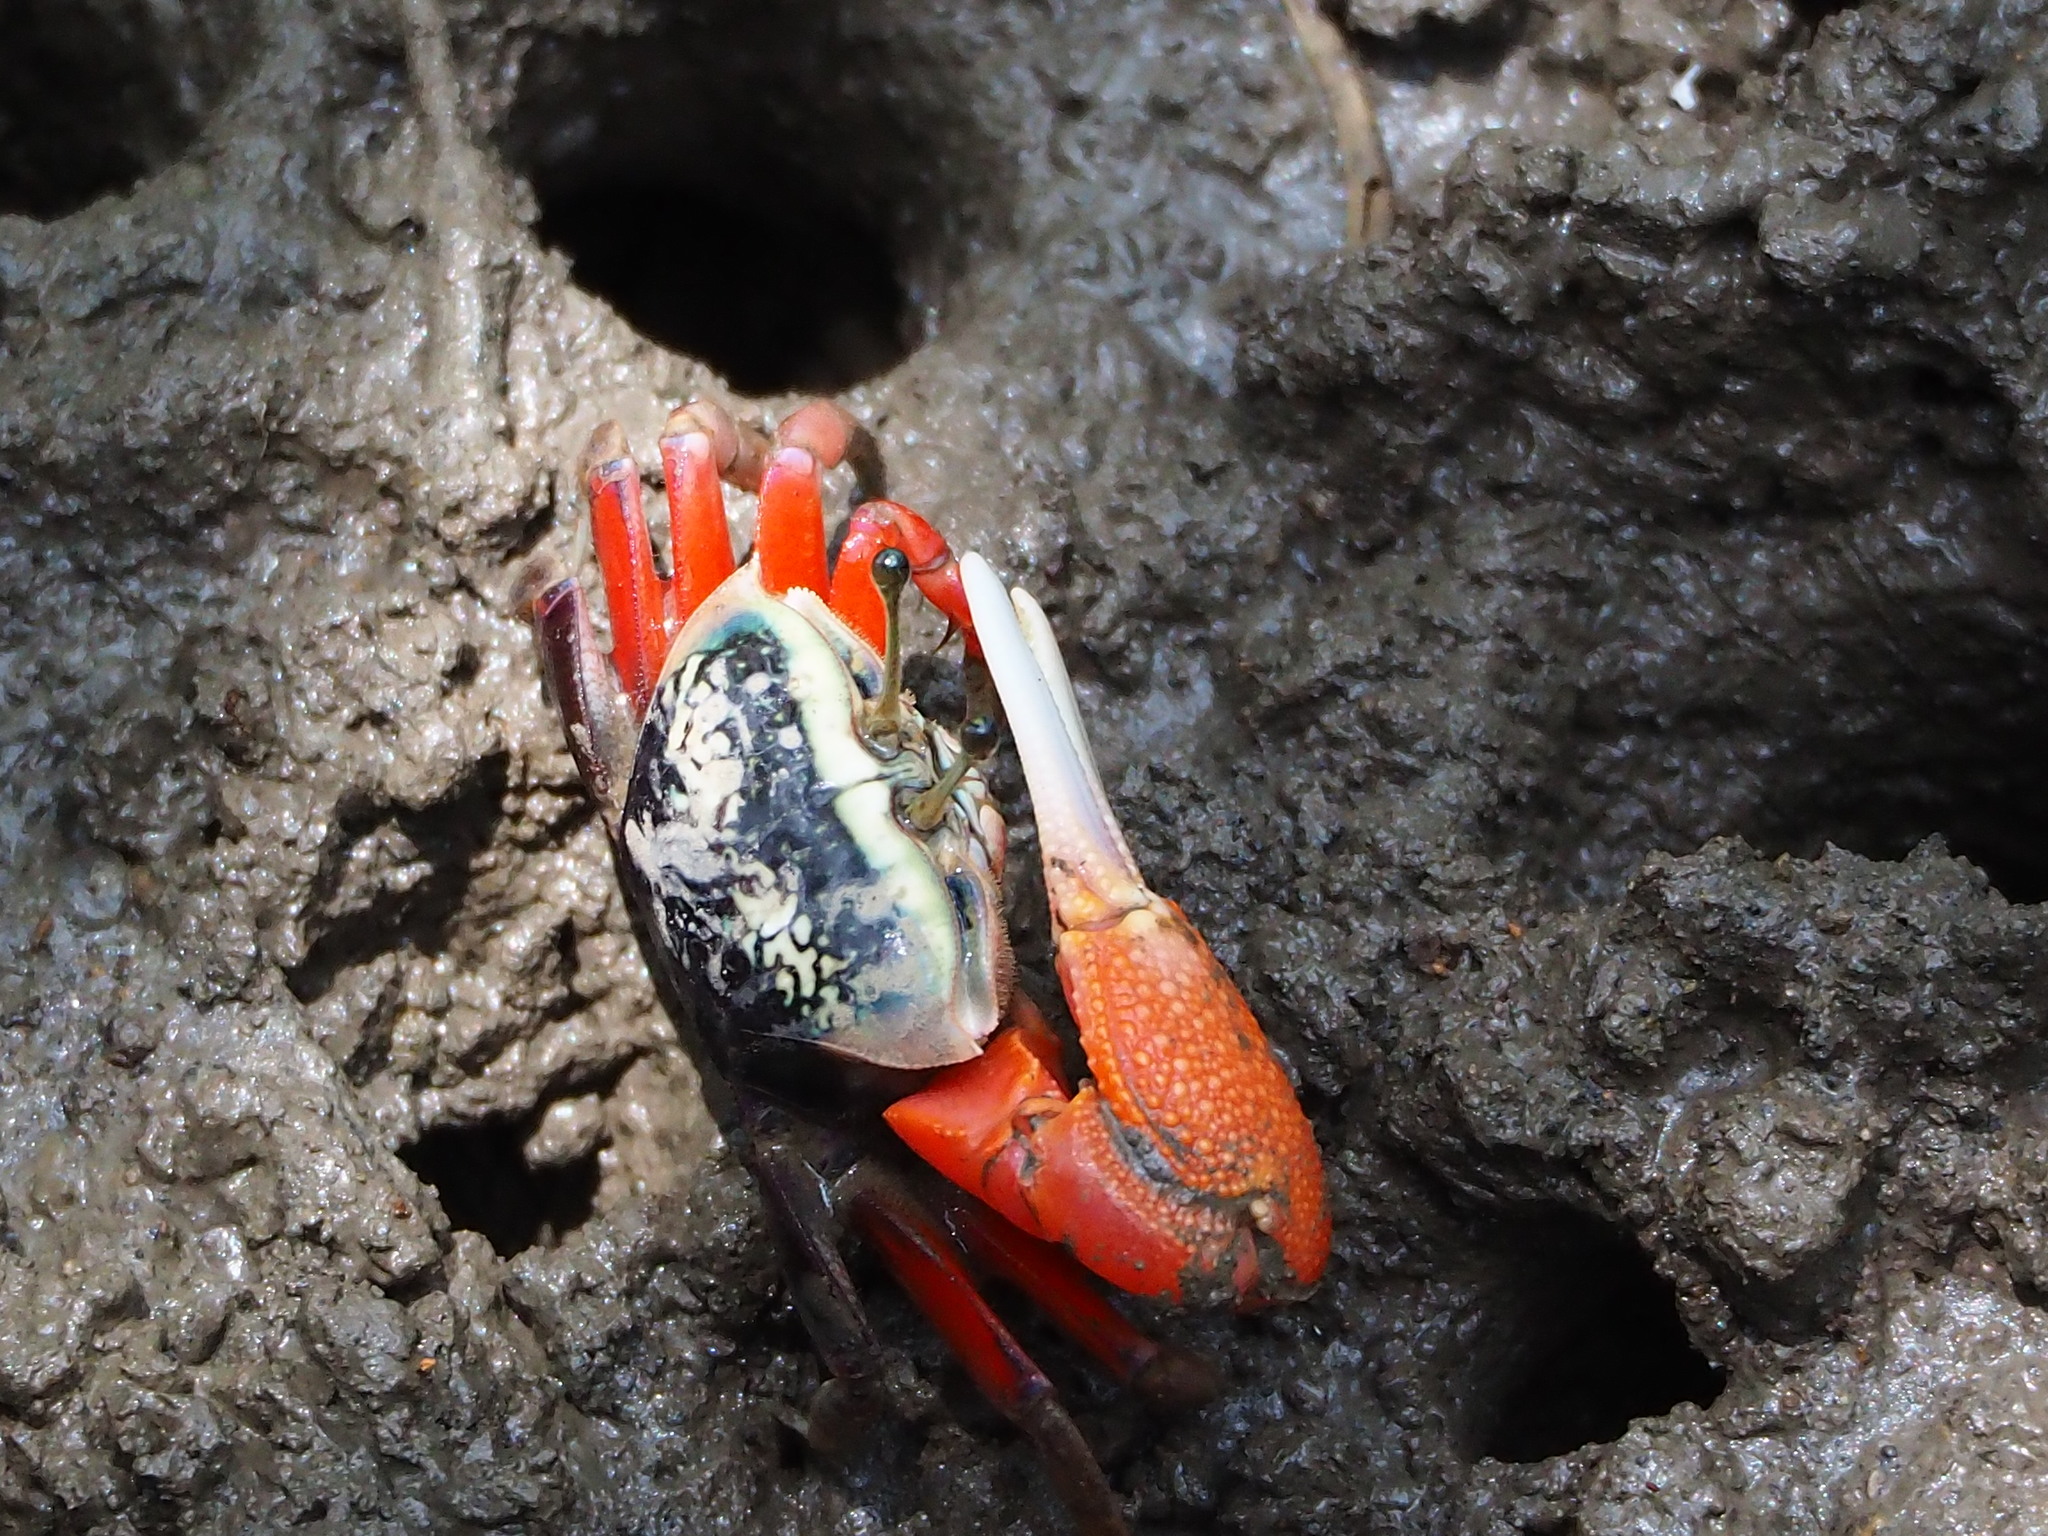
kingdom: Animalia
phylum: Arthropoda
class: Malacostraca
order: Decapoda
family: Ocypodidae
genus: Tubuca
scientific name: Tubuca arcuata
